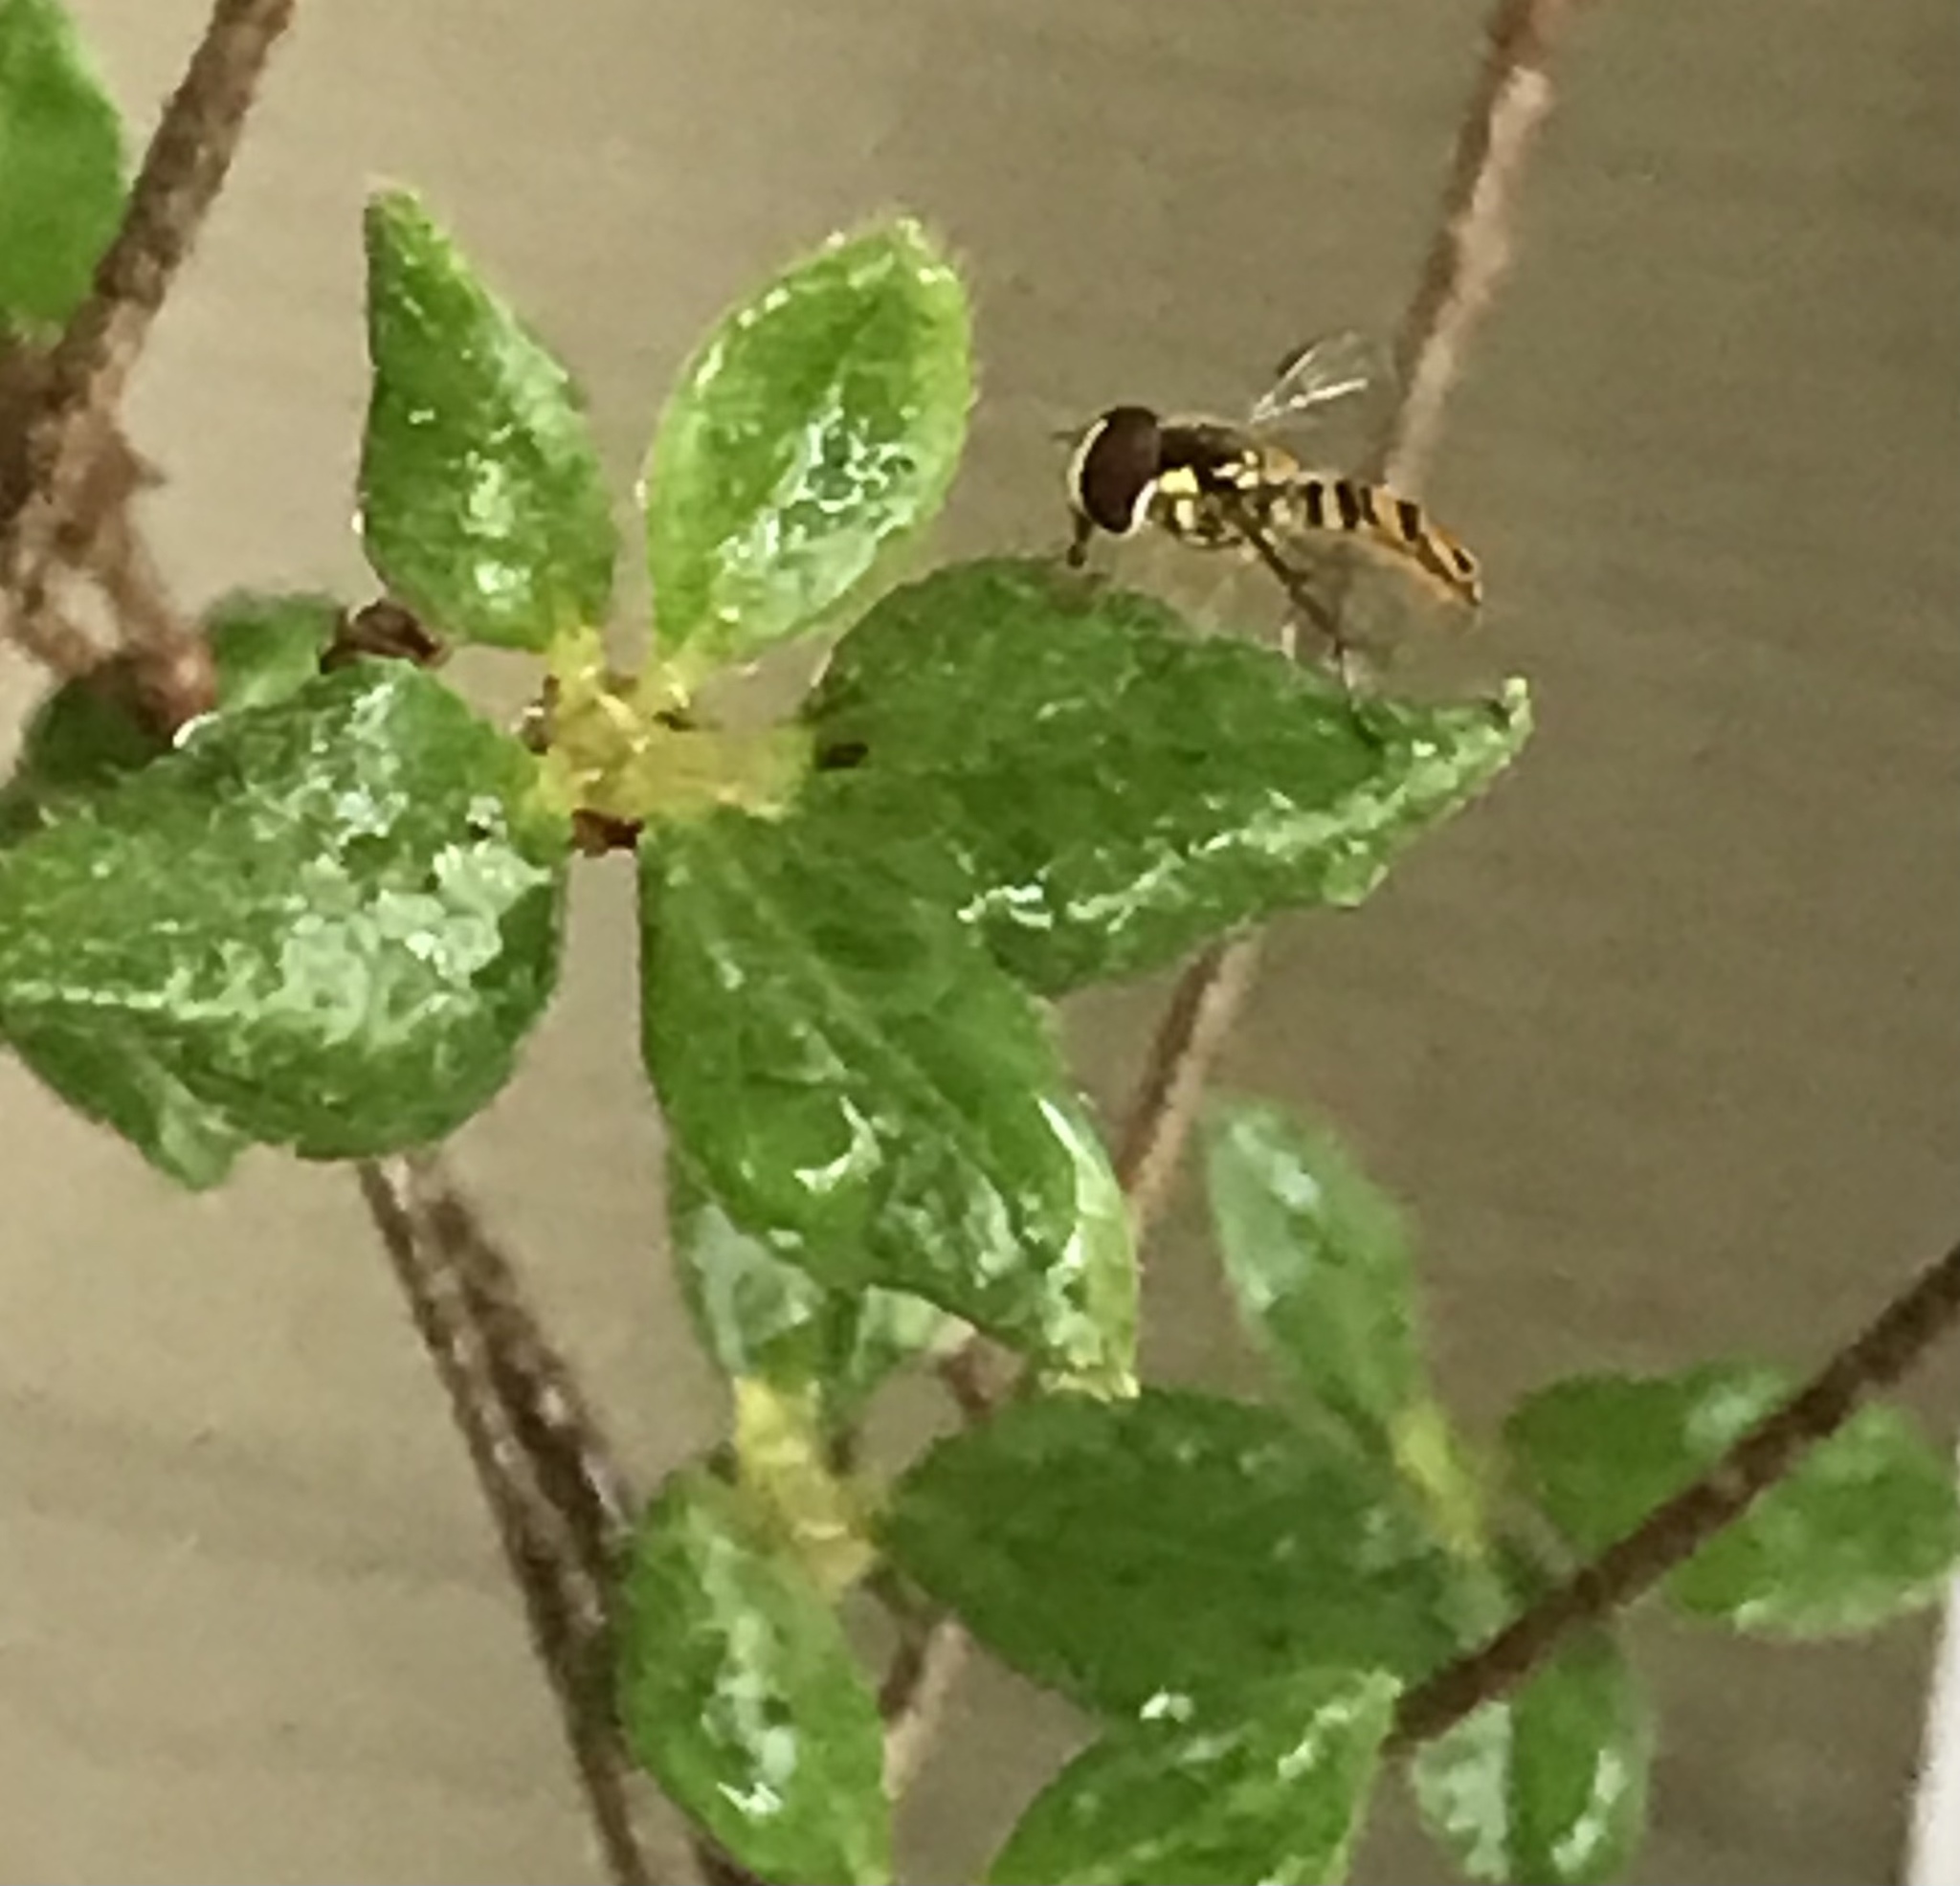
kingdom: Animalia
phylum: Arthropoda
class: Insecta
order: Diptera
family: Syrphidae
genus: Allograpta
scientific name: Allograpta obliqua
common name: Common oblique syrphid
